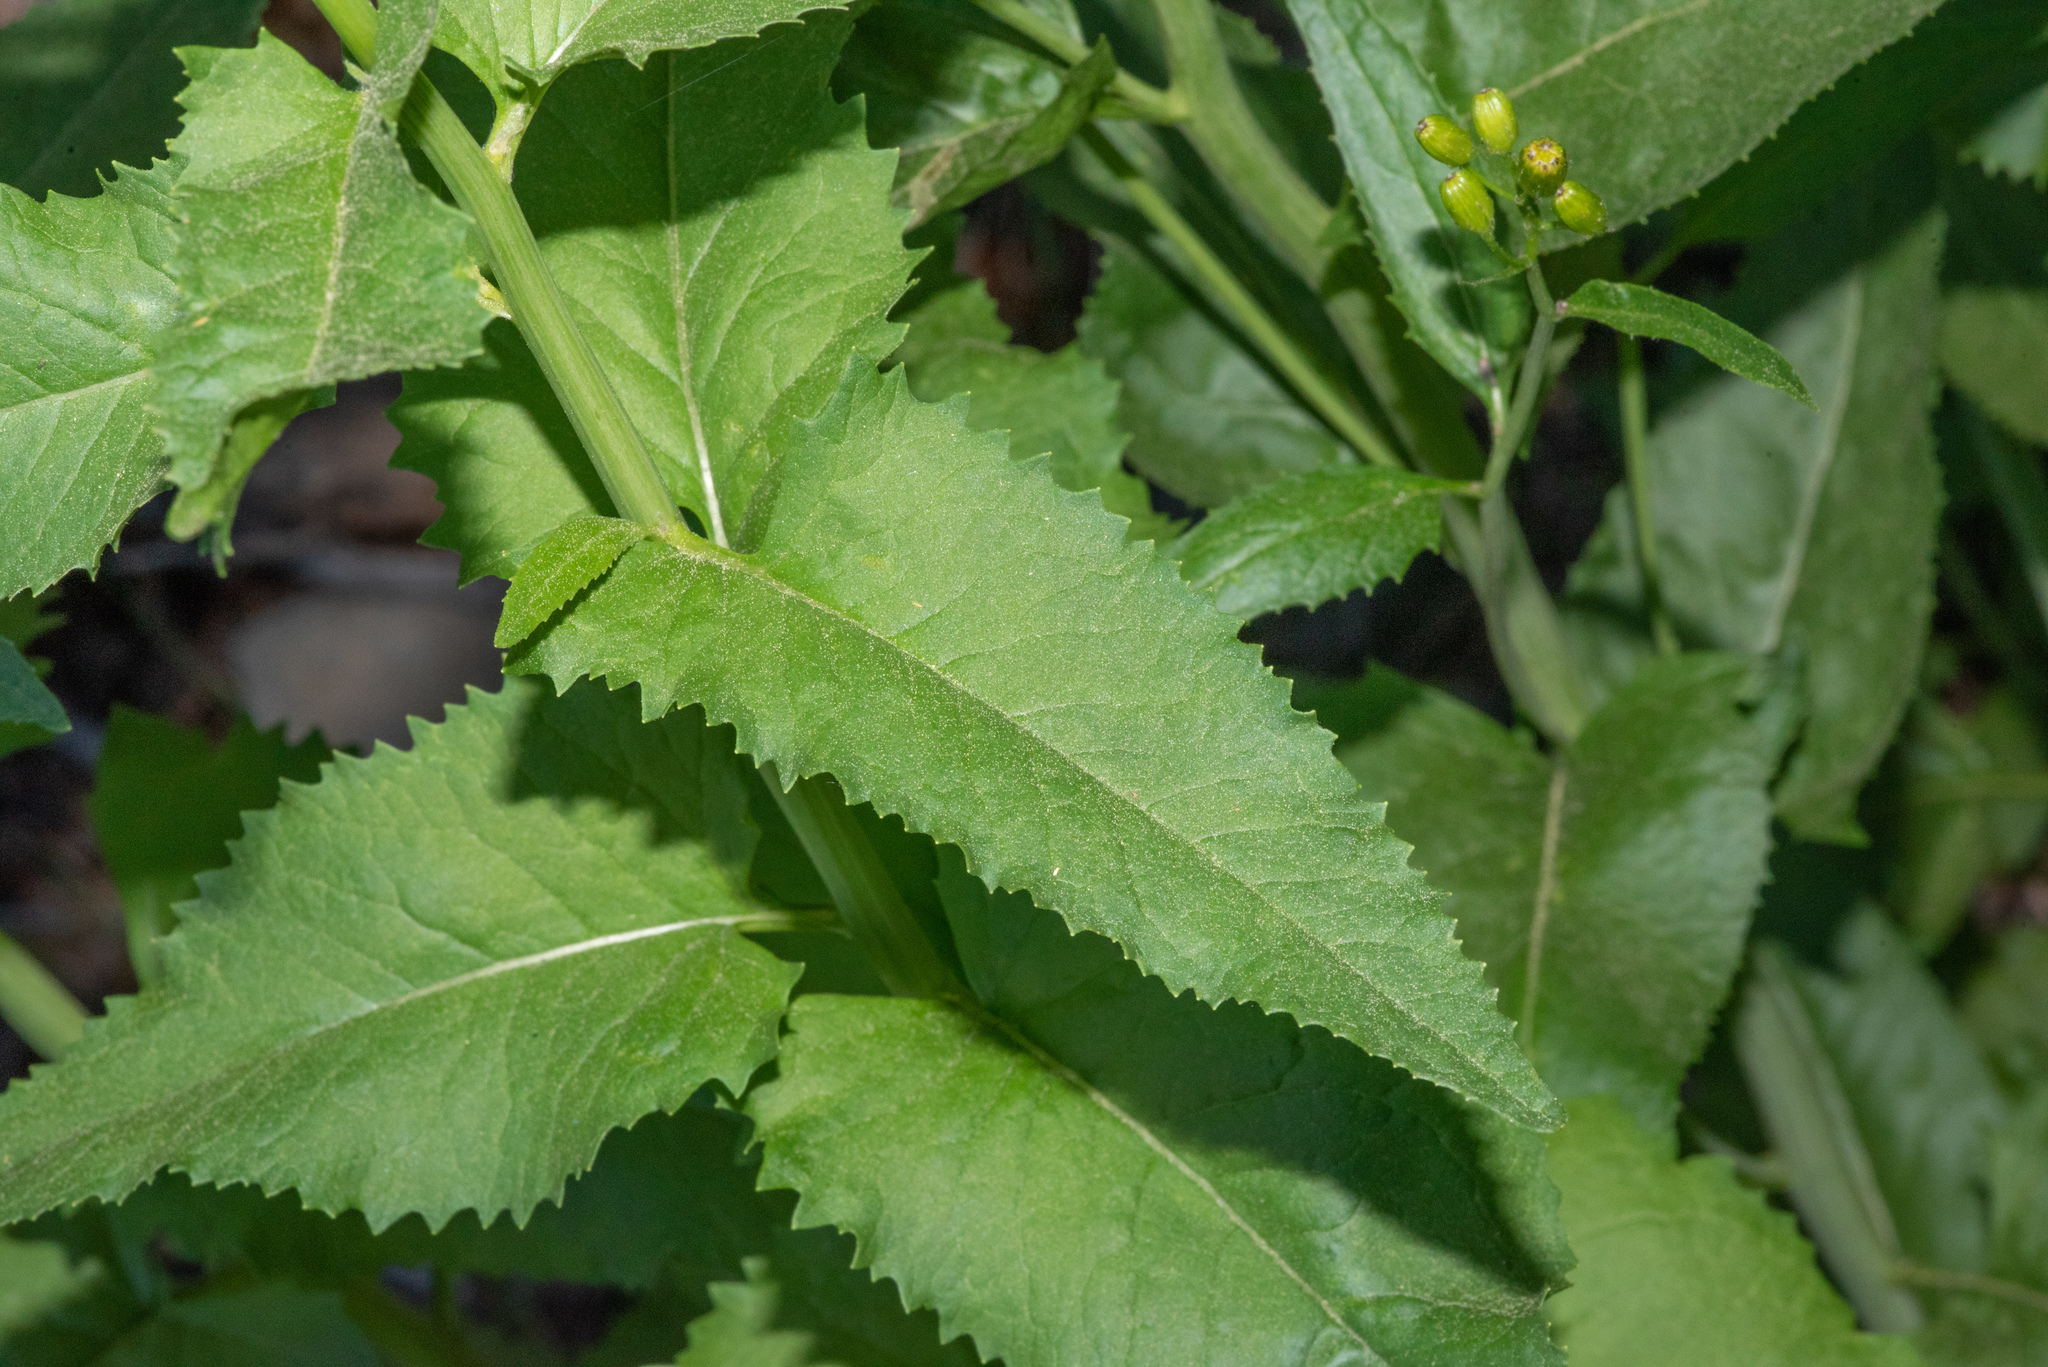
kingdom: Plantae
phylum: Tracheophyta
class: Magnoliopsida
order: Asterales
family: Asteraceae
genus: Senecio
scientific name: Senecio triangularis
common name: Arrowleaf butterweed
